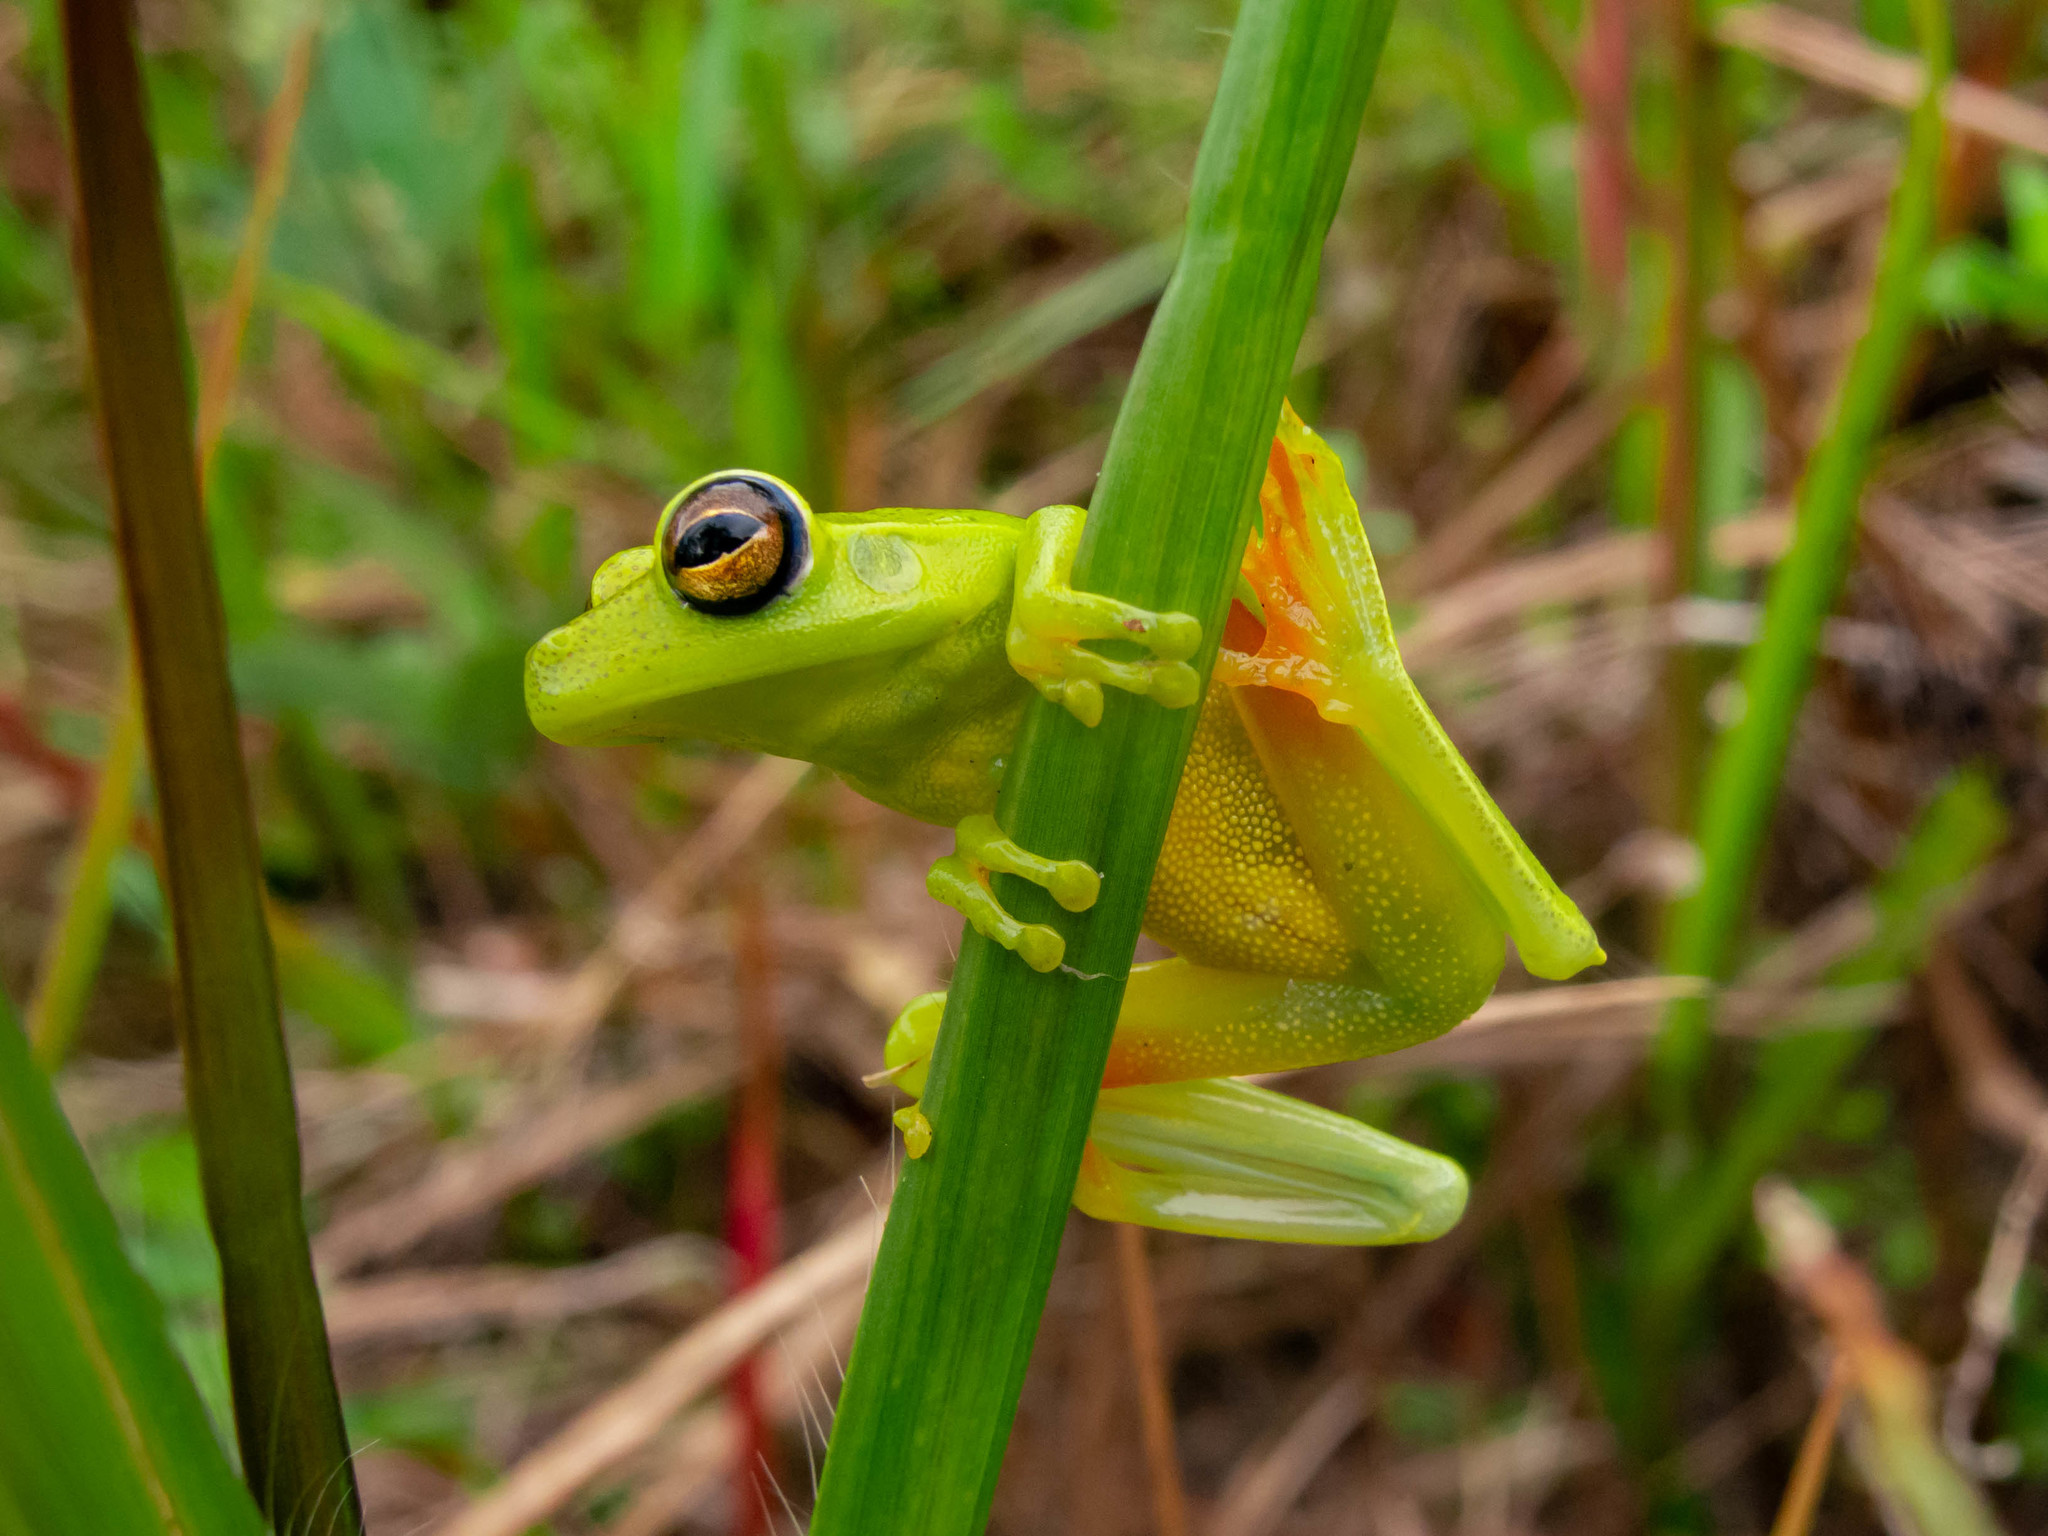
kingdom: Animalia
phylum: Chordata
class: Amphibia
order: Anura
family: Hylidae
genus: Boana
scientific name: Boana albomarginata
